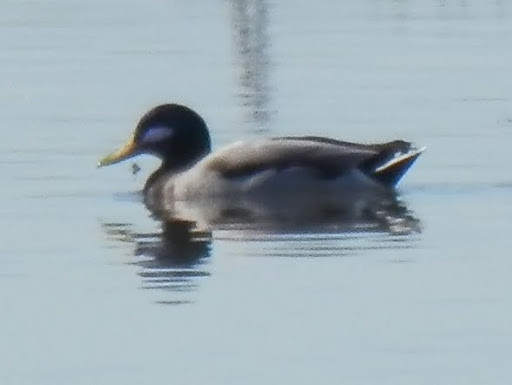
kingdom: Animalia
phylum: Chordata
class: Aves
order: Anseriformes
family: Anatidae
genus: Anas
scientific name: Anas platyrhynchos
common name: Mallard
